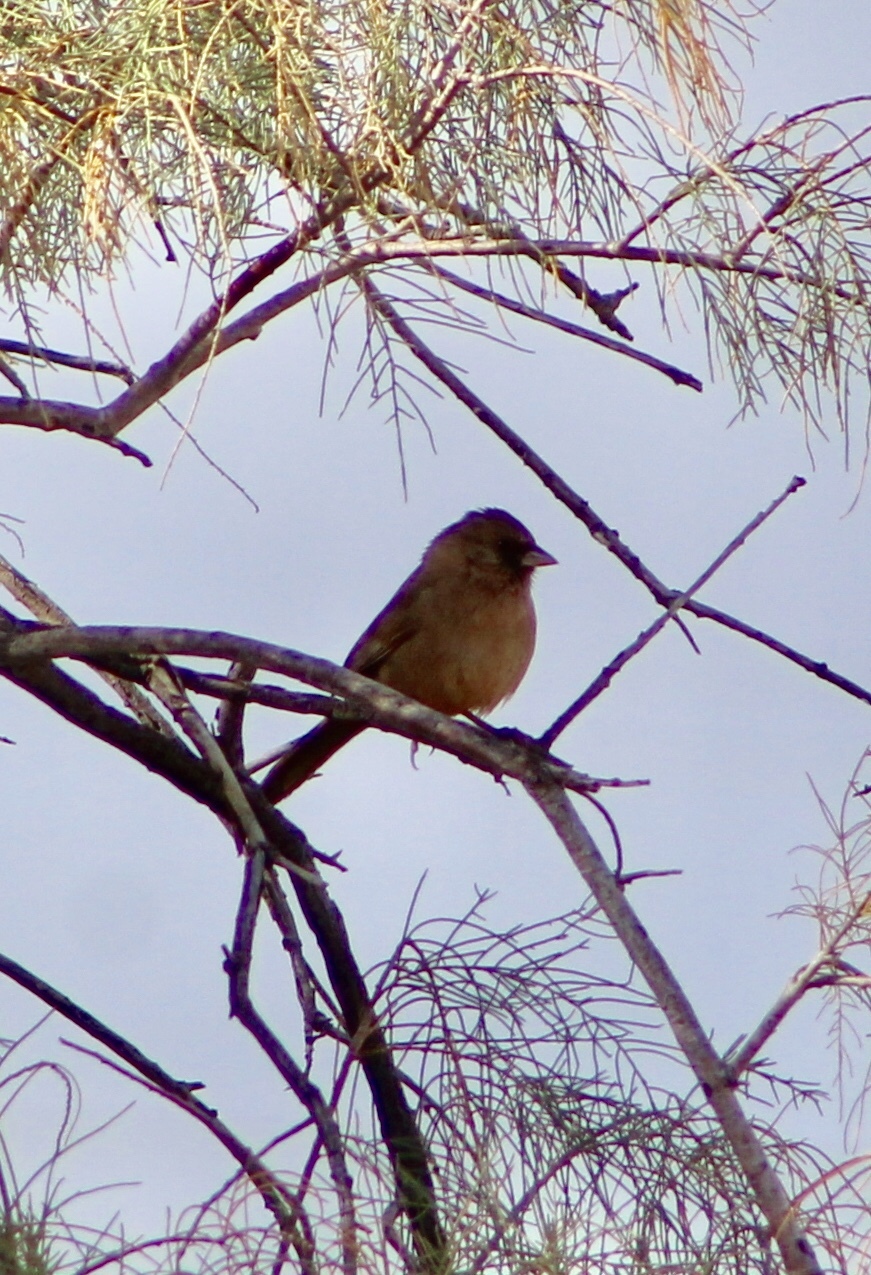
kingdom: Animalia
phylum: Chordata
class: Aves
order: Passeriformes
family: Passerellidae
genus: Melozone
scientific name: Melozone aberti
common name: Abert's towhee
